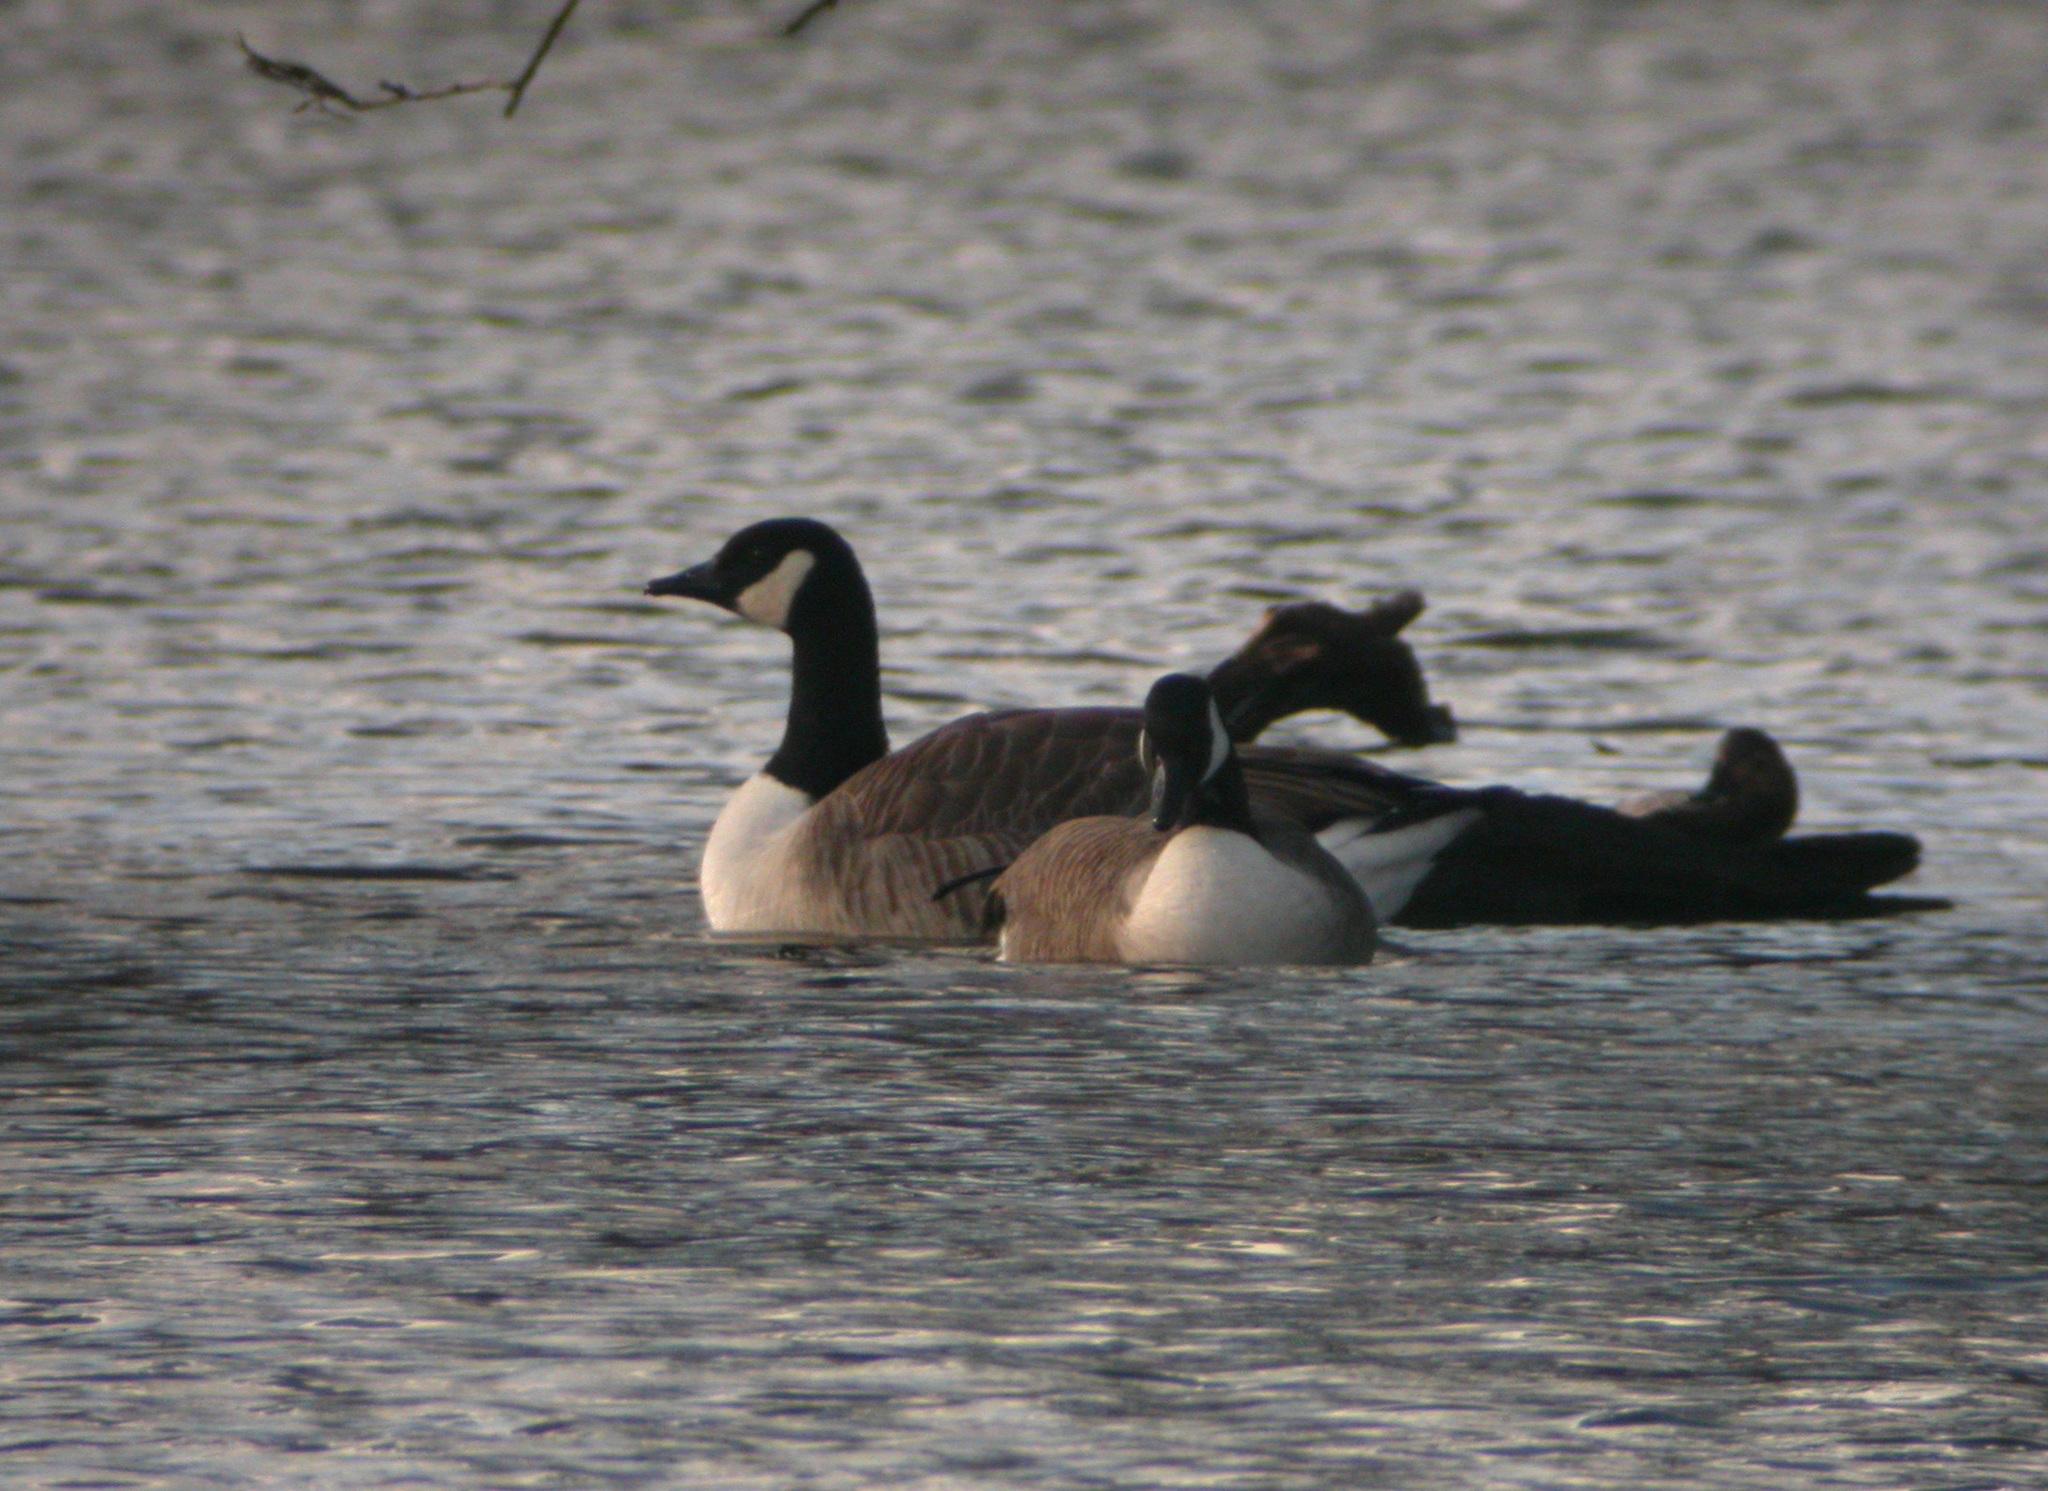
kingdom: Animalia
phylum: Chordata
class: Aves
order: Anseriformes
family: Anatidae
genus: Branta
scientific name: Branta canadensis
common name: Canada goose
